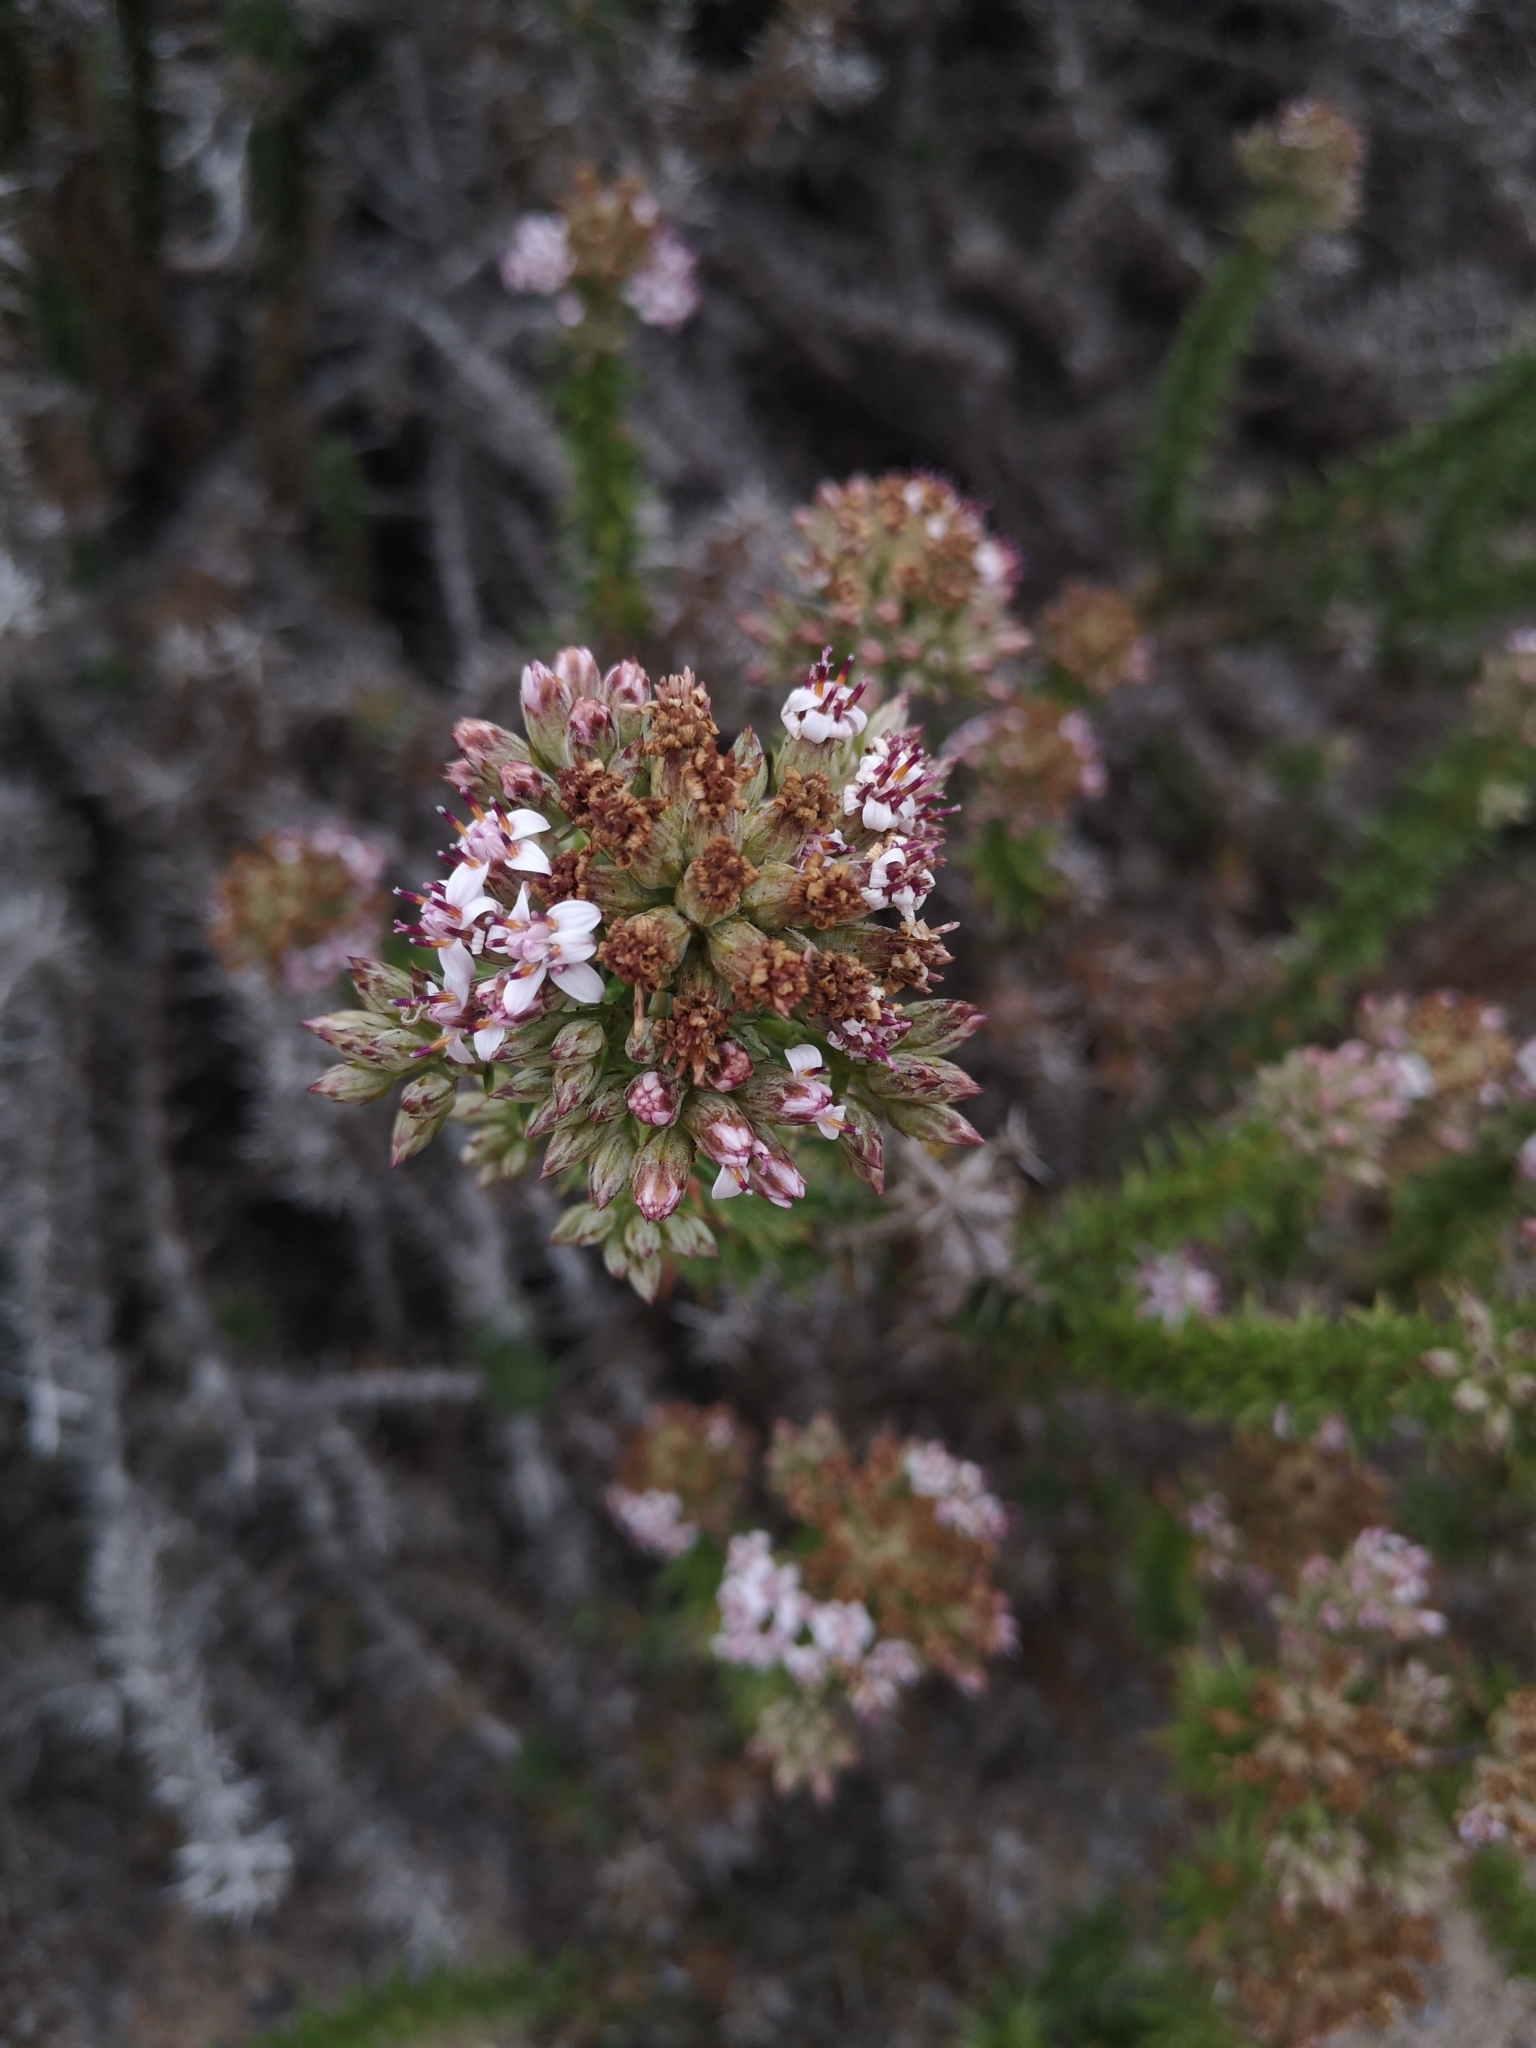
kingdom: Plantae
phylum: Tracheophyta
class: Magnoliopsida
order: Asterales
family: Asteraceae
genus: Oxyphyllum
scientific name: Oxyphyllum ulicinum
